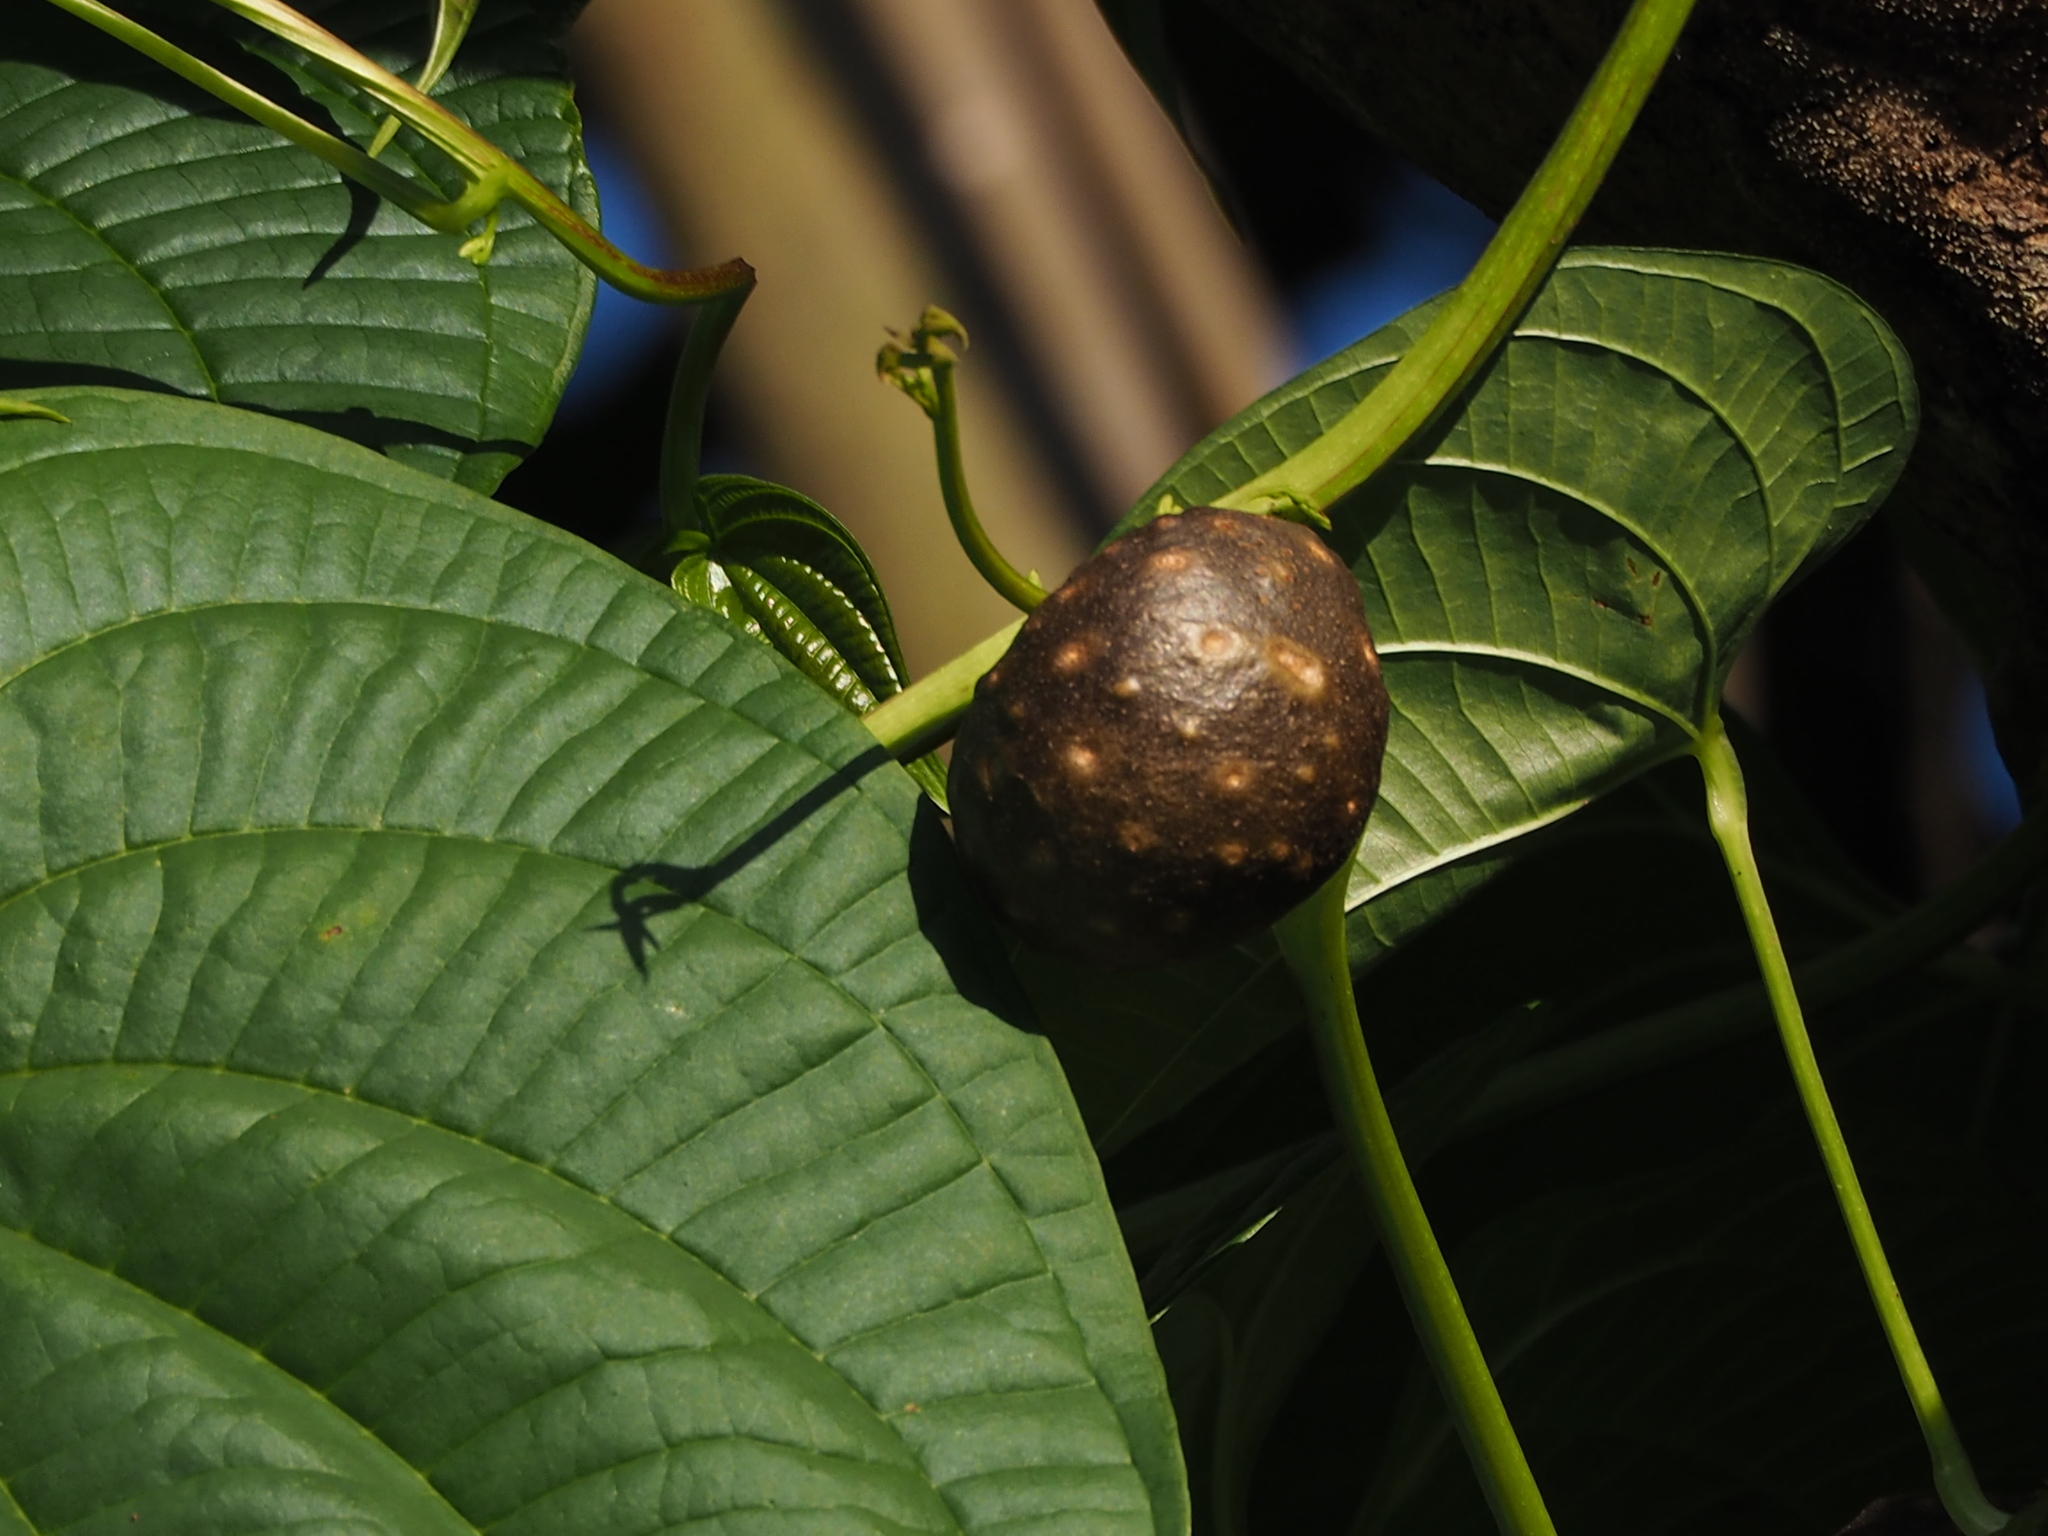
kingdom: Plantae
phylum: Tracheophyta
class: Liliopsida
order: Dioscoreales
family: Dioscoreaceae
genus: Dioscorea
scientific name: Dioscorea bulbifera
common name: Air yam
